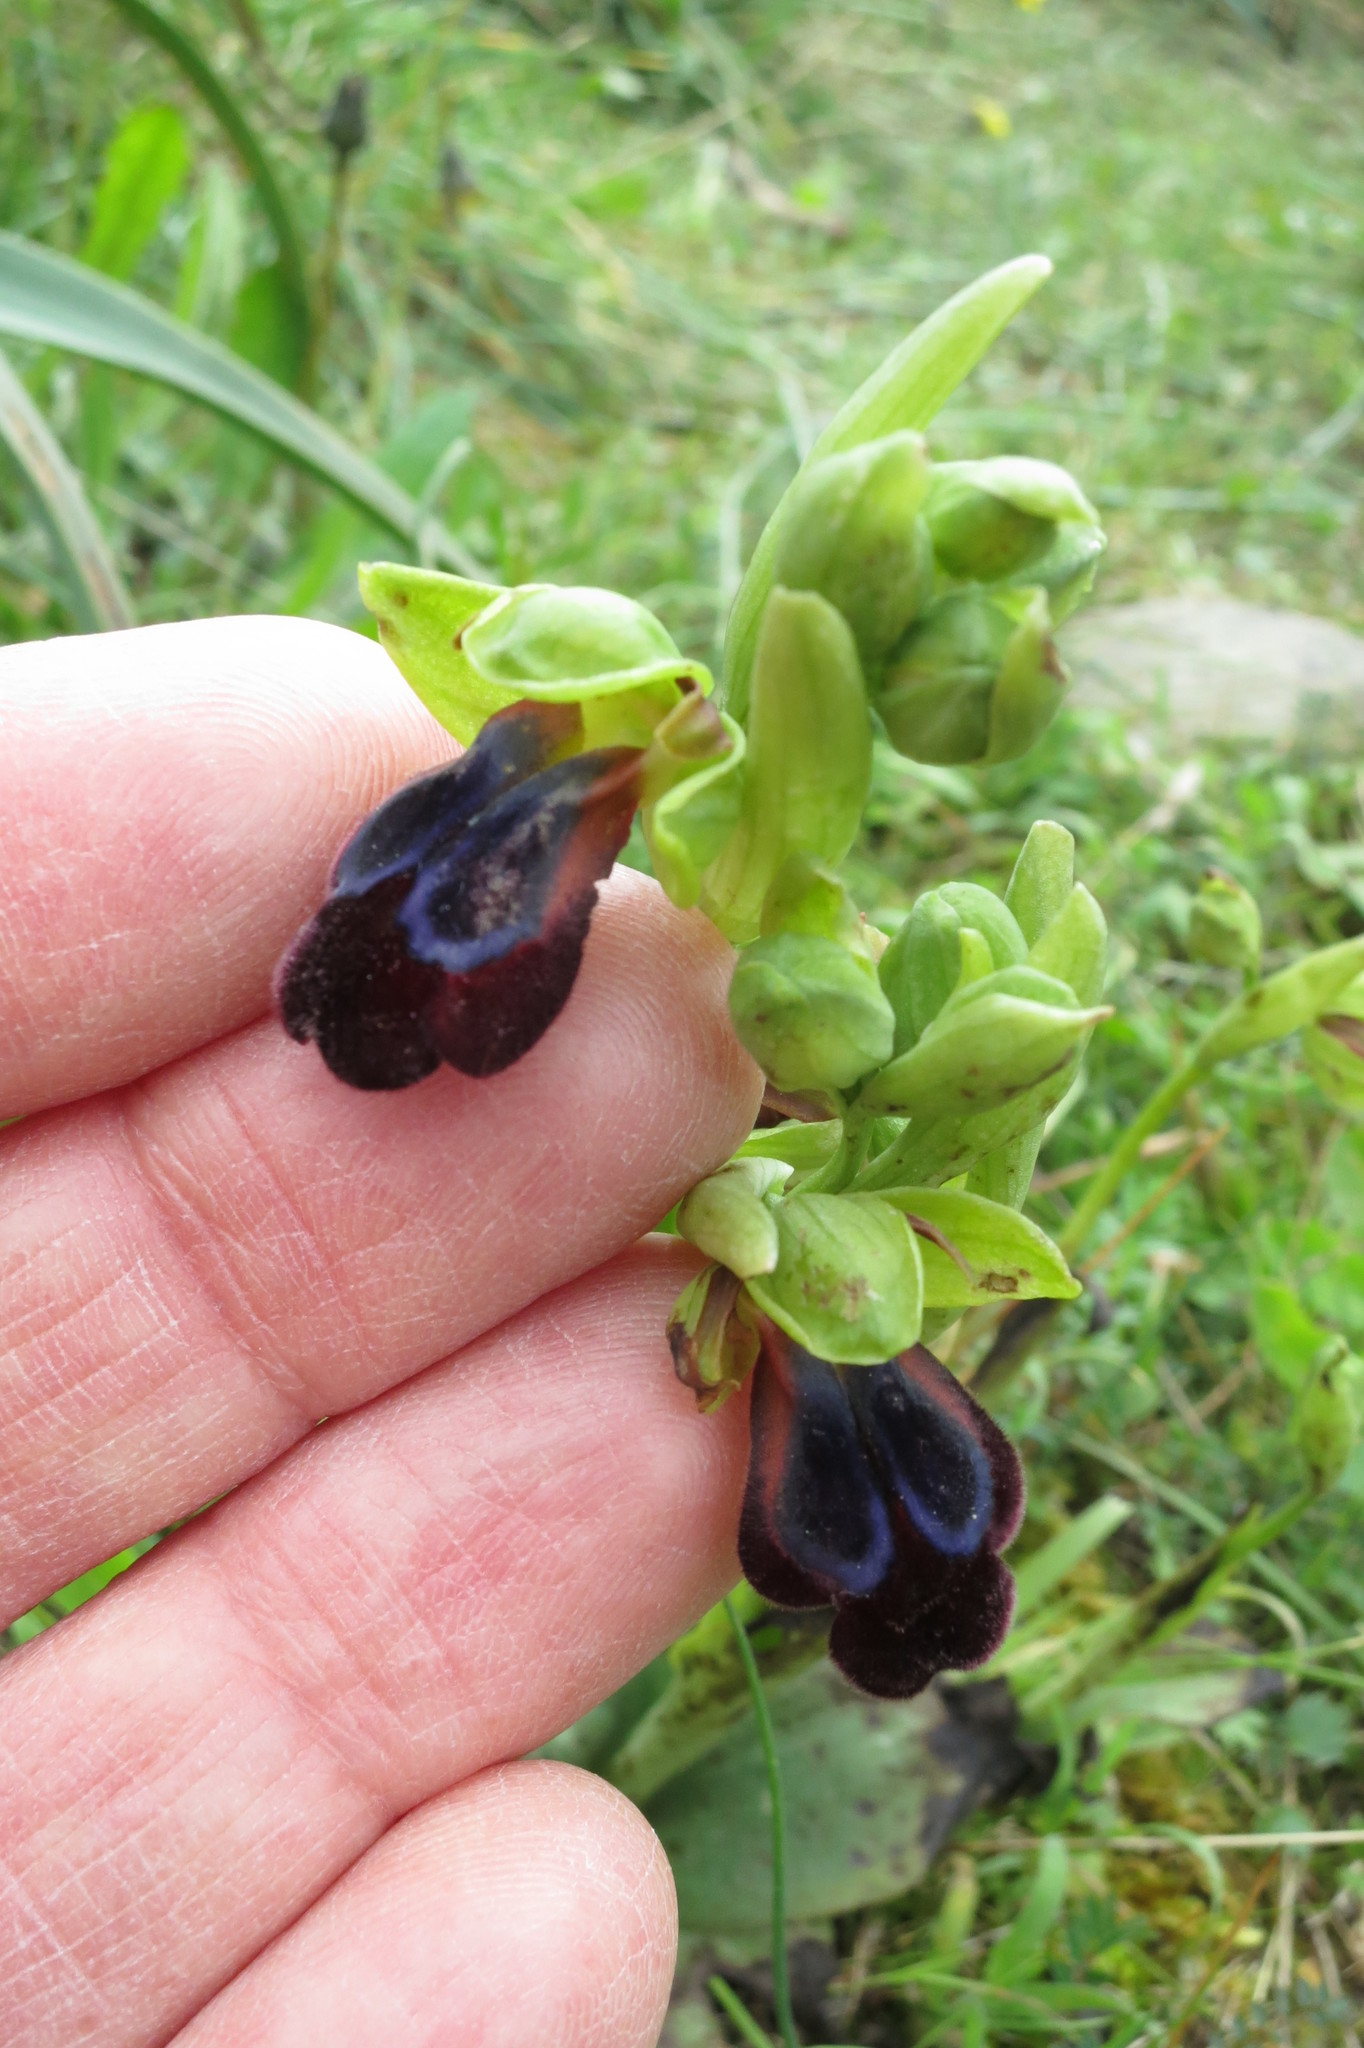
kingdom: Plantae
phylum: Tracheophyta
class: Liliopsida
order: Asparagales
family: Orchidaceae
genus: Ophrys
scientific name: Ophrys fusca
